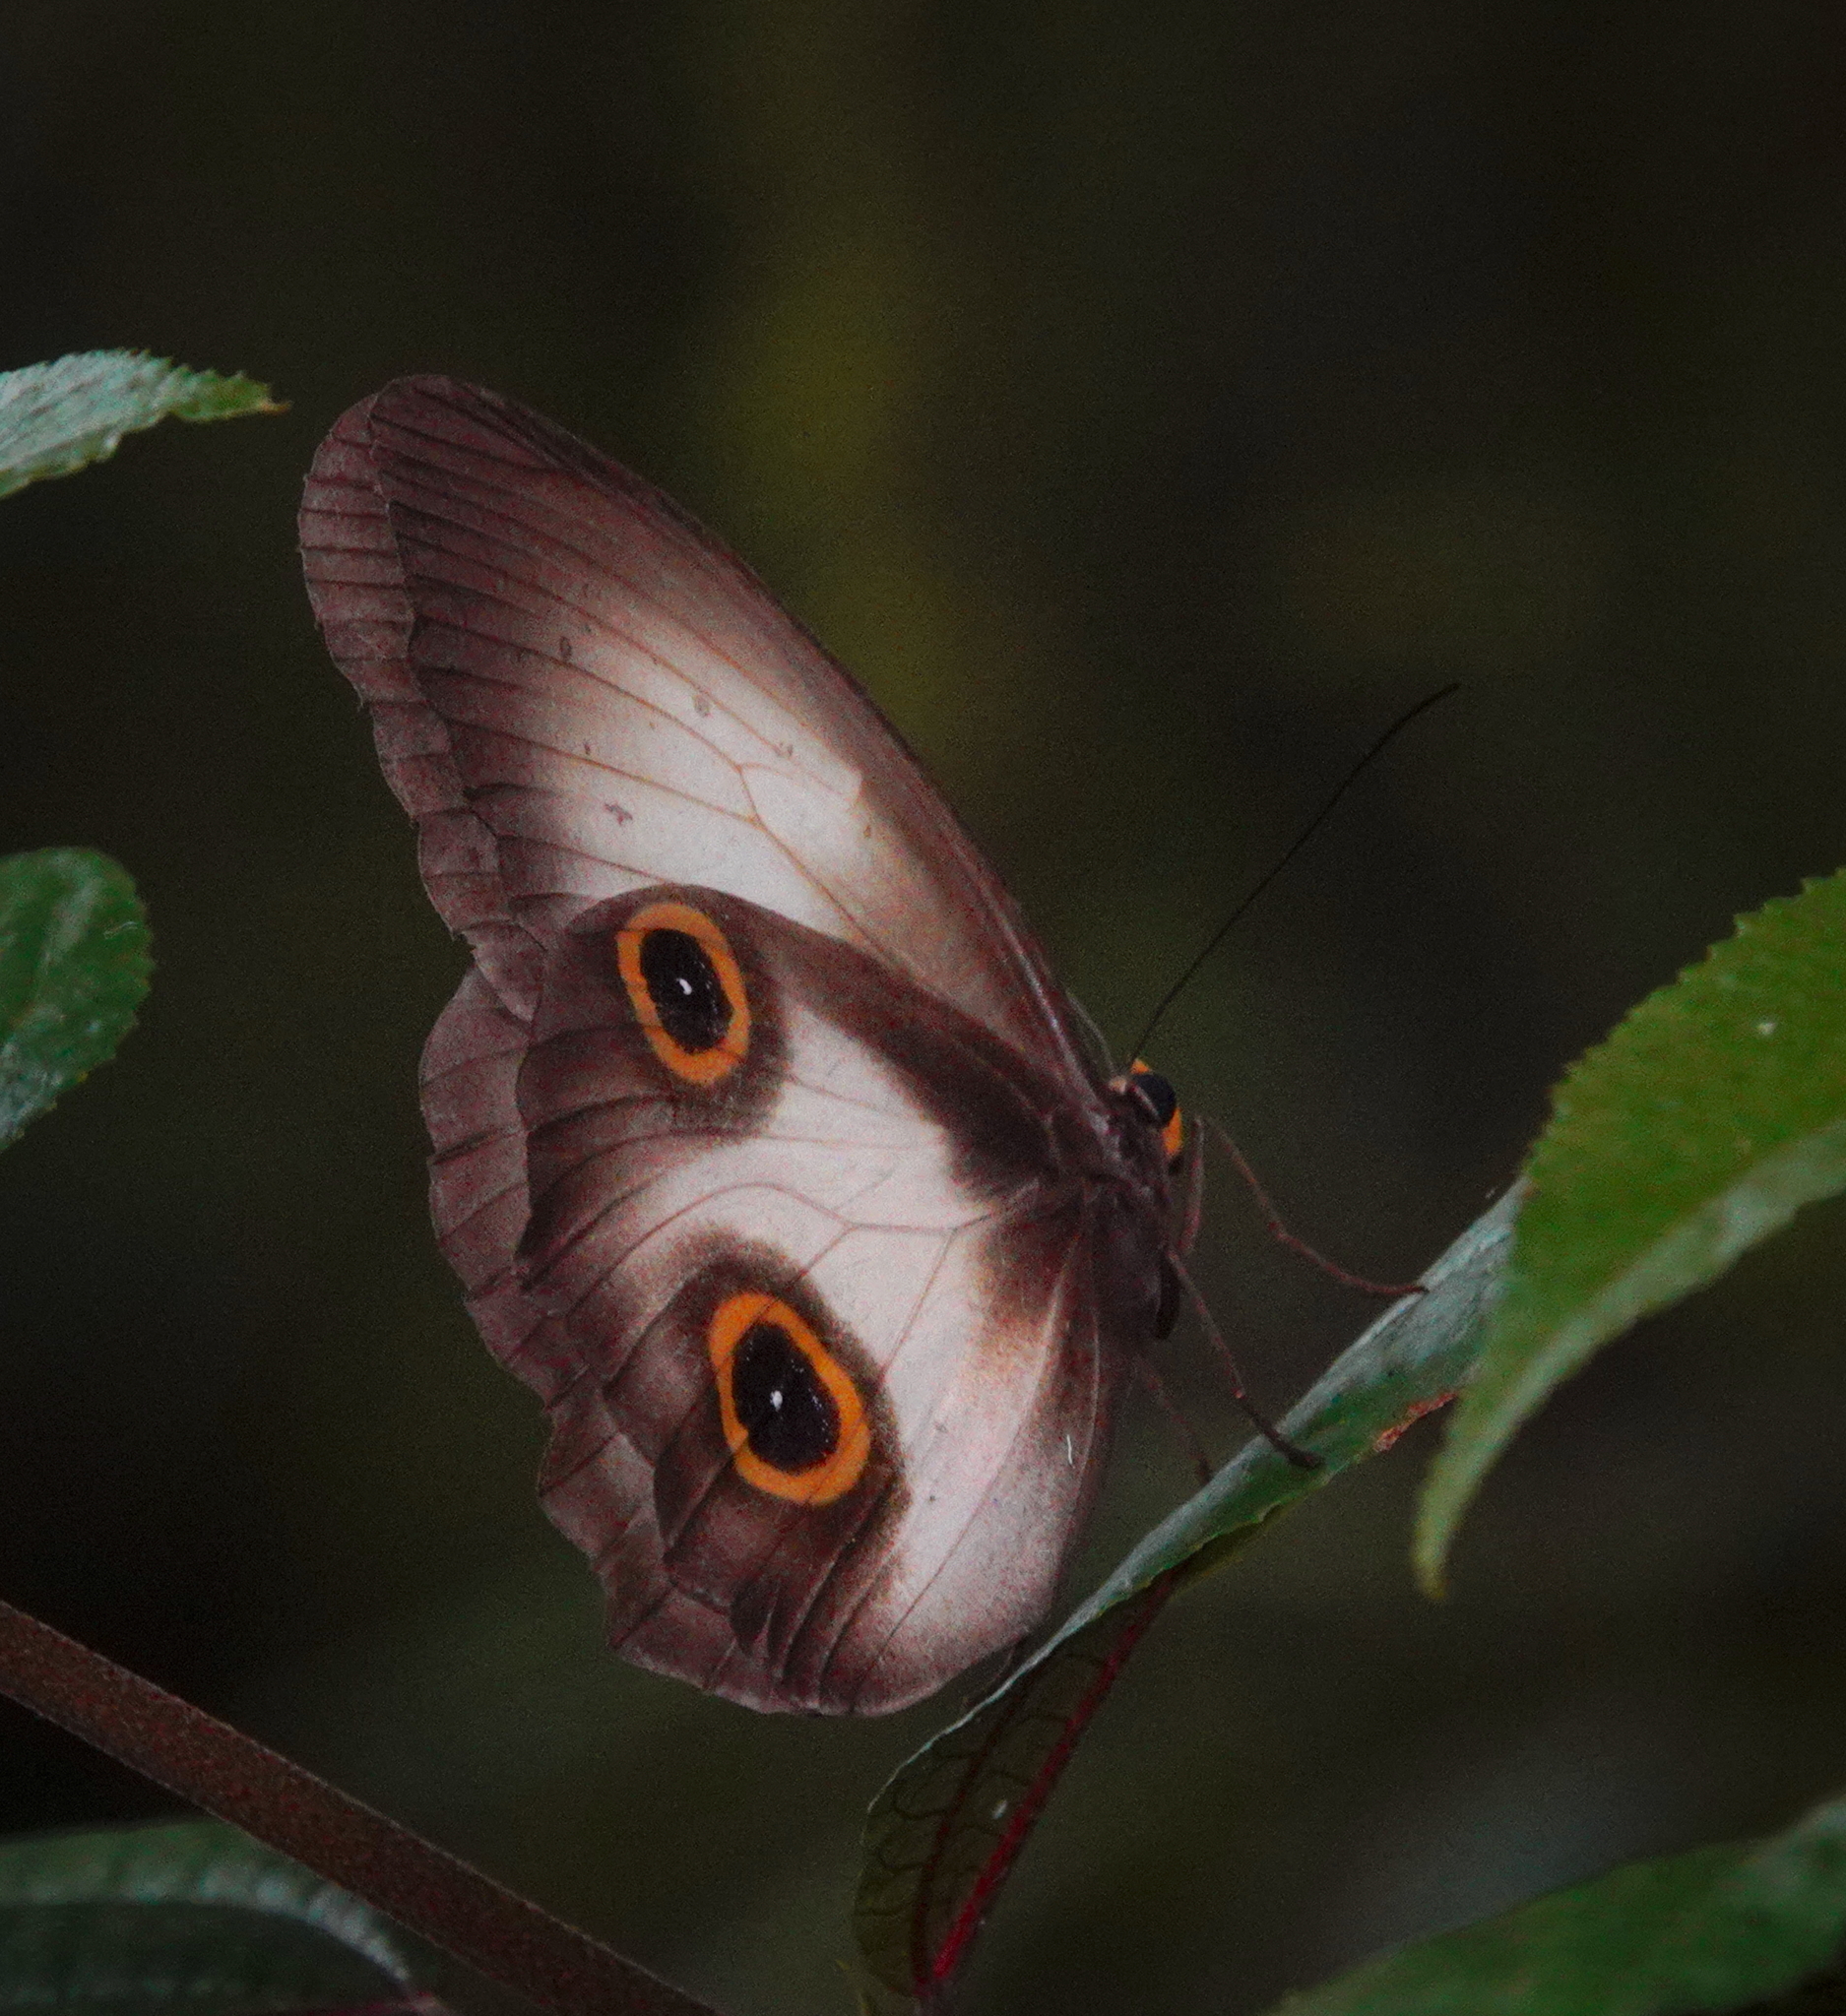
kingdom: Animalia
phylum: Arthropoda
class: Insecta
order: Lepidoptera
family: Nymphalidae
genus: Taenaris
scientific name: Taenaris selene
